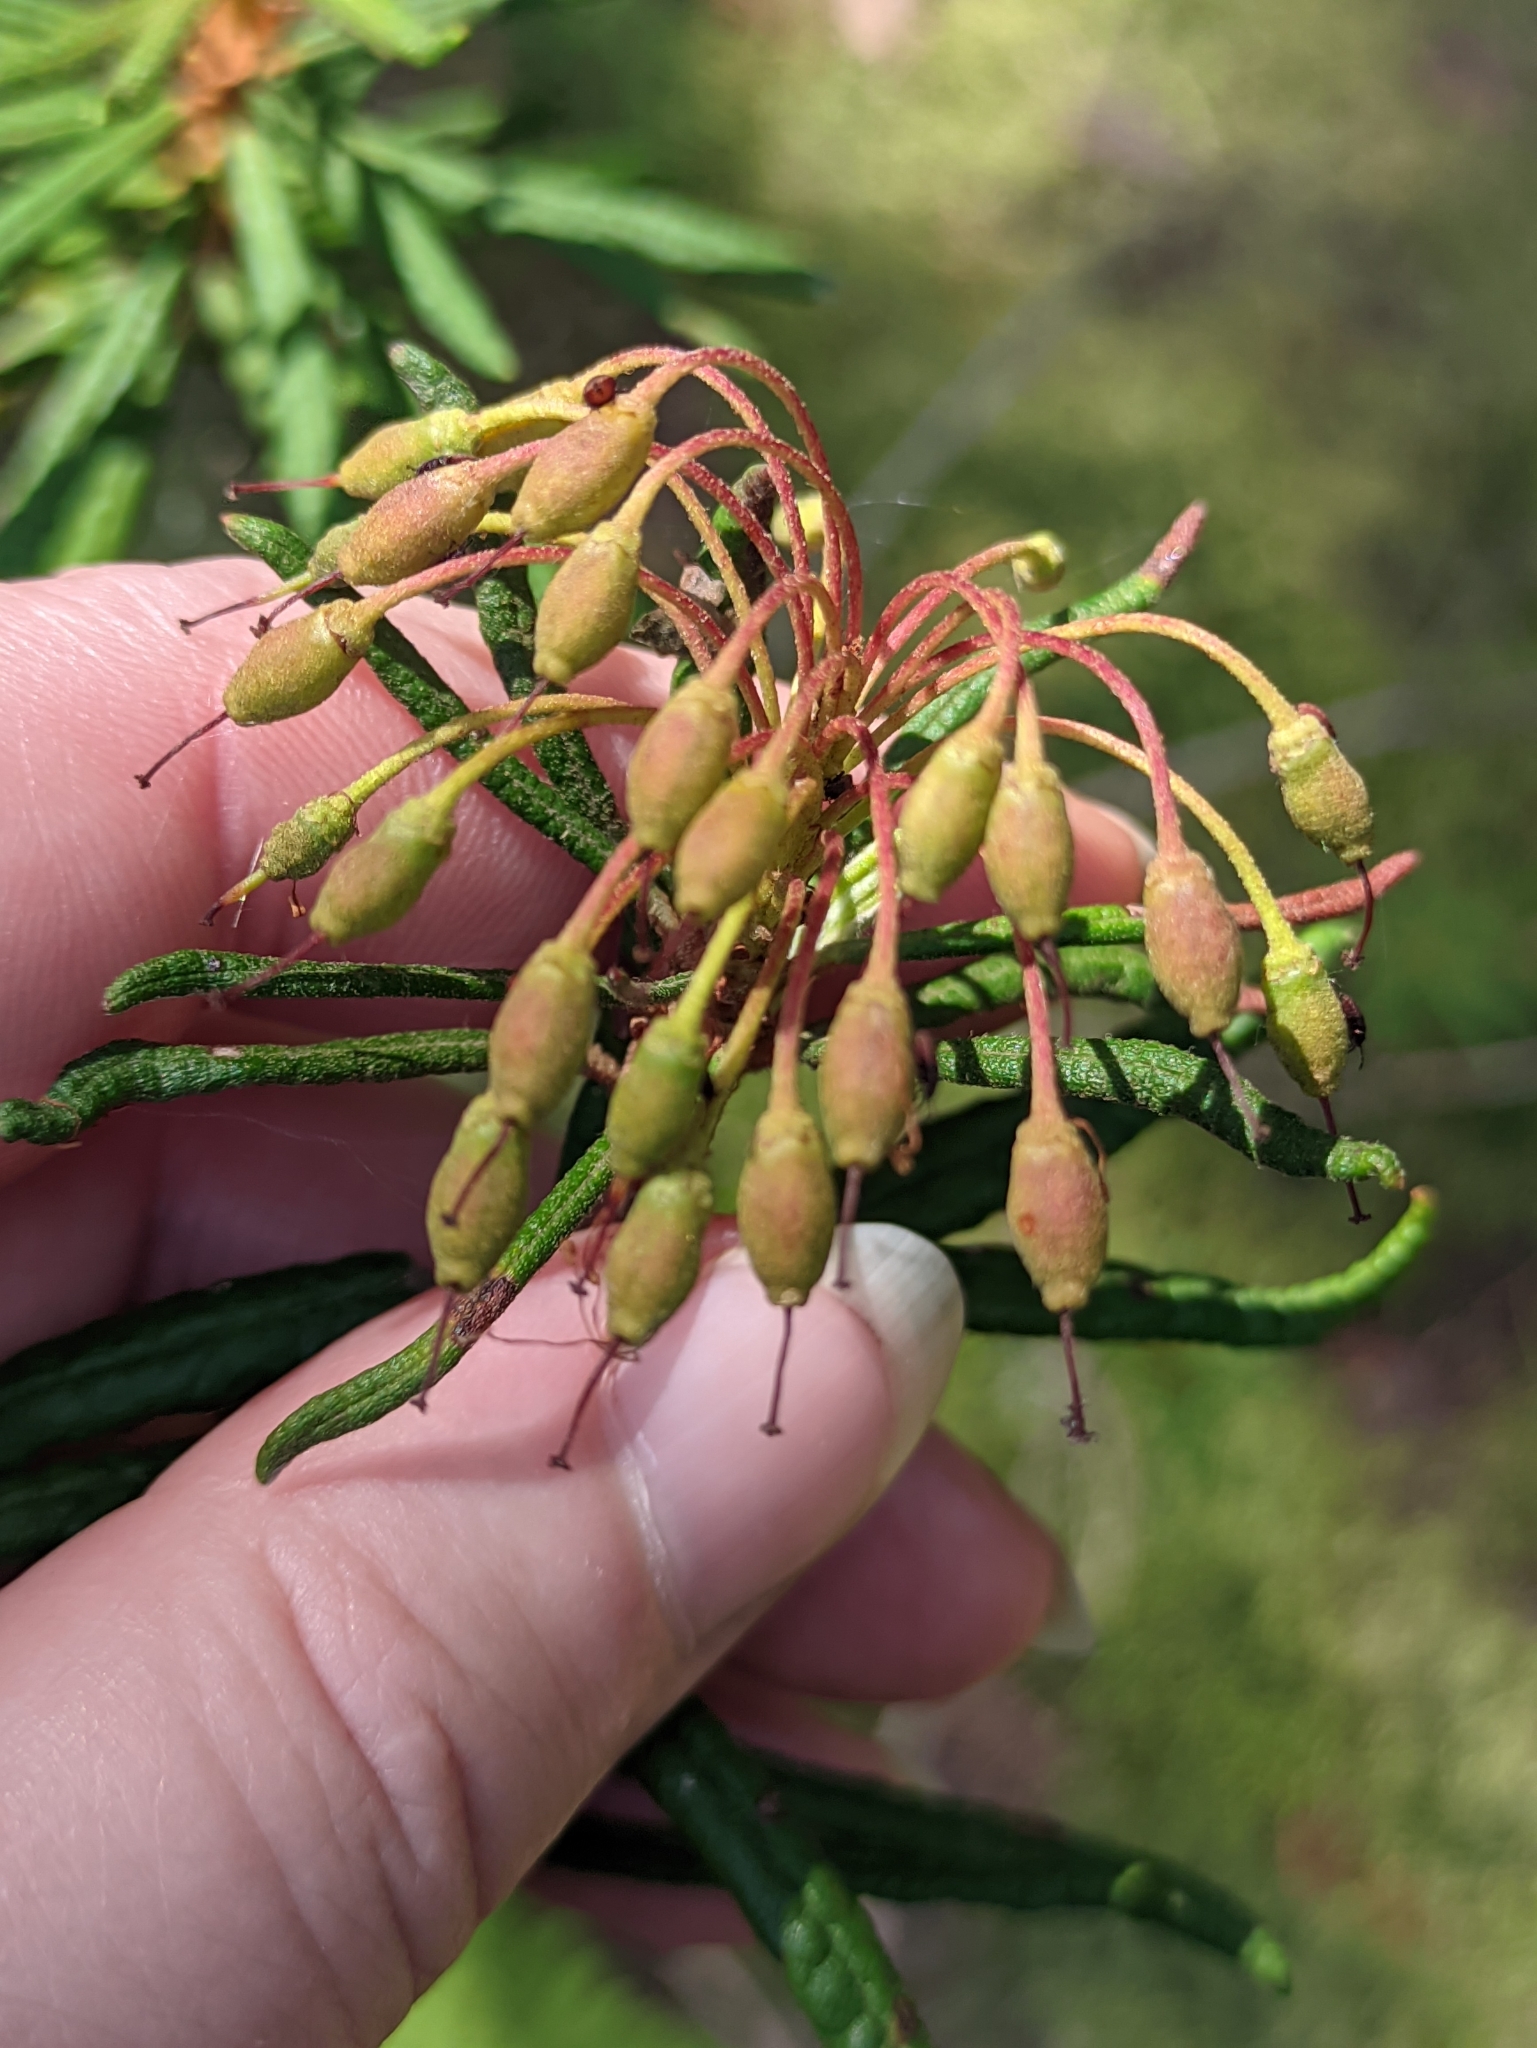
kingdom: Plantae
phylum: Tracheophyta
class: Magnoliopsida
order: Ericales
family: Ericaceae
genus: Rhododendron
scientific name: Rhododendron tomentosum
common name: Marsh labrador tea
